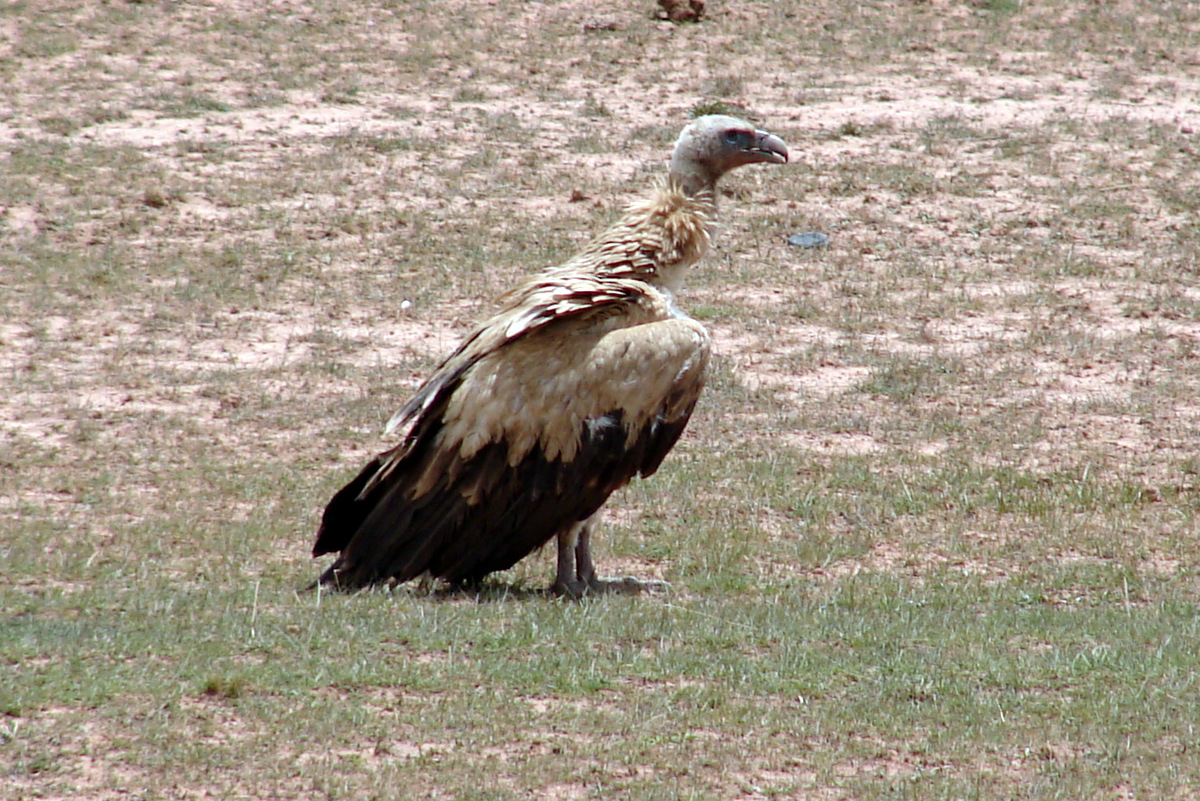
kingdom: Animalia
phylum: Chordata
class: Aves
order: Accipitriformes
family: Accipitridae
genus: Gyps
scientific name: Gyps himalayensis
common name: Himalayan griffon
